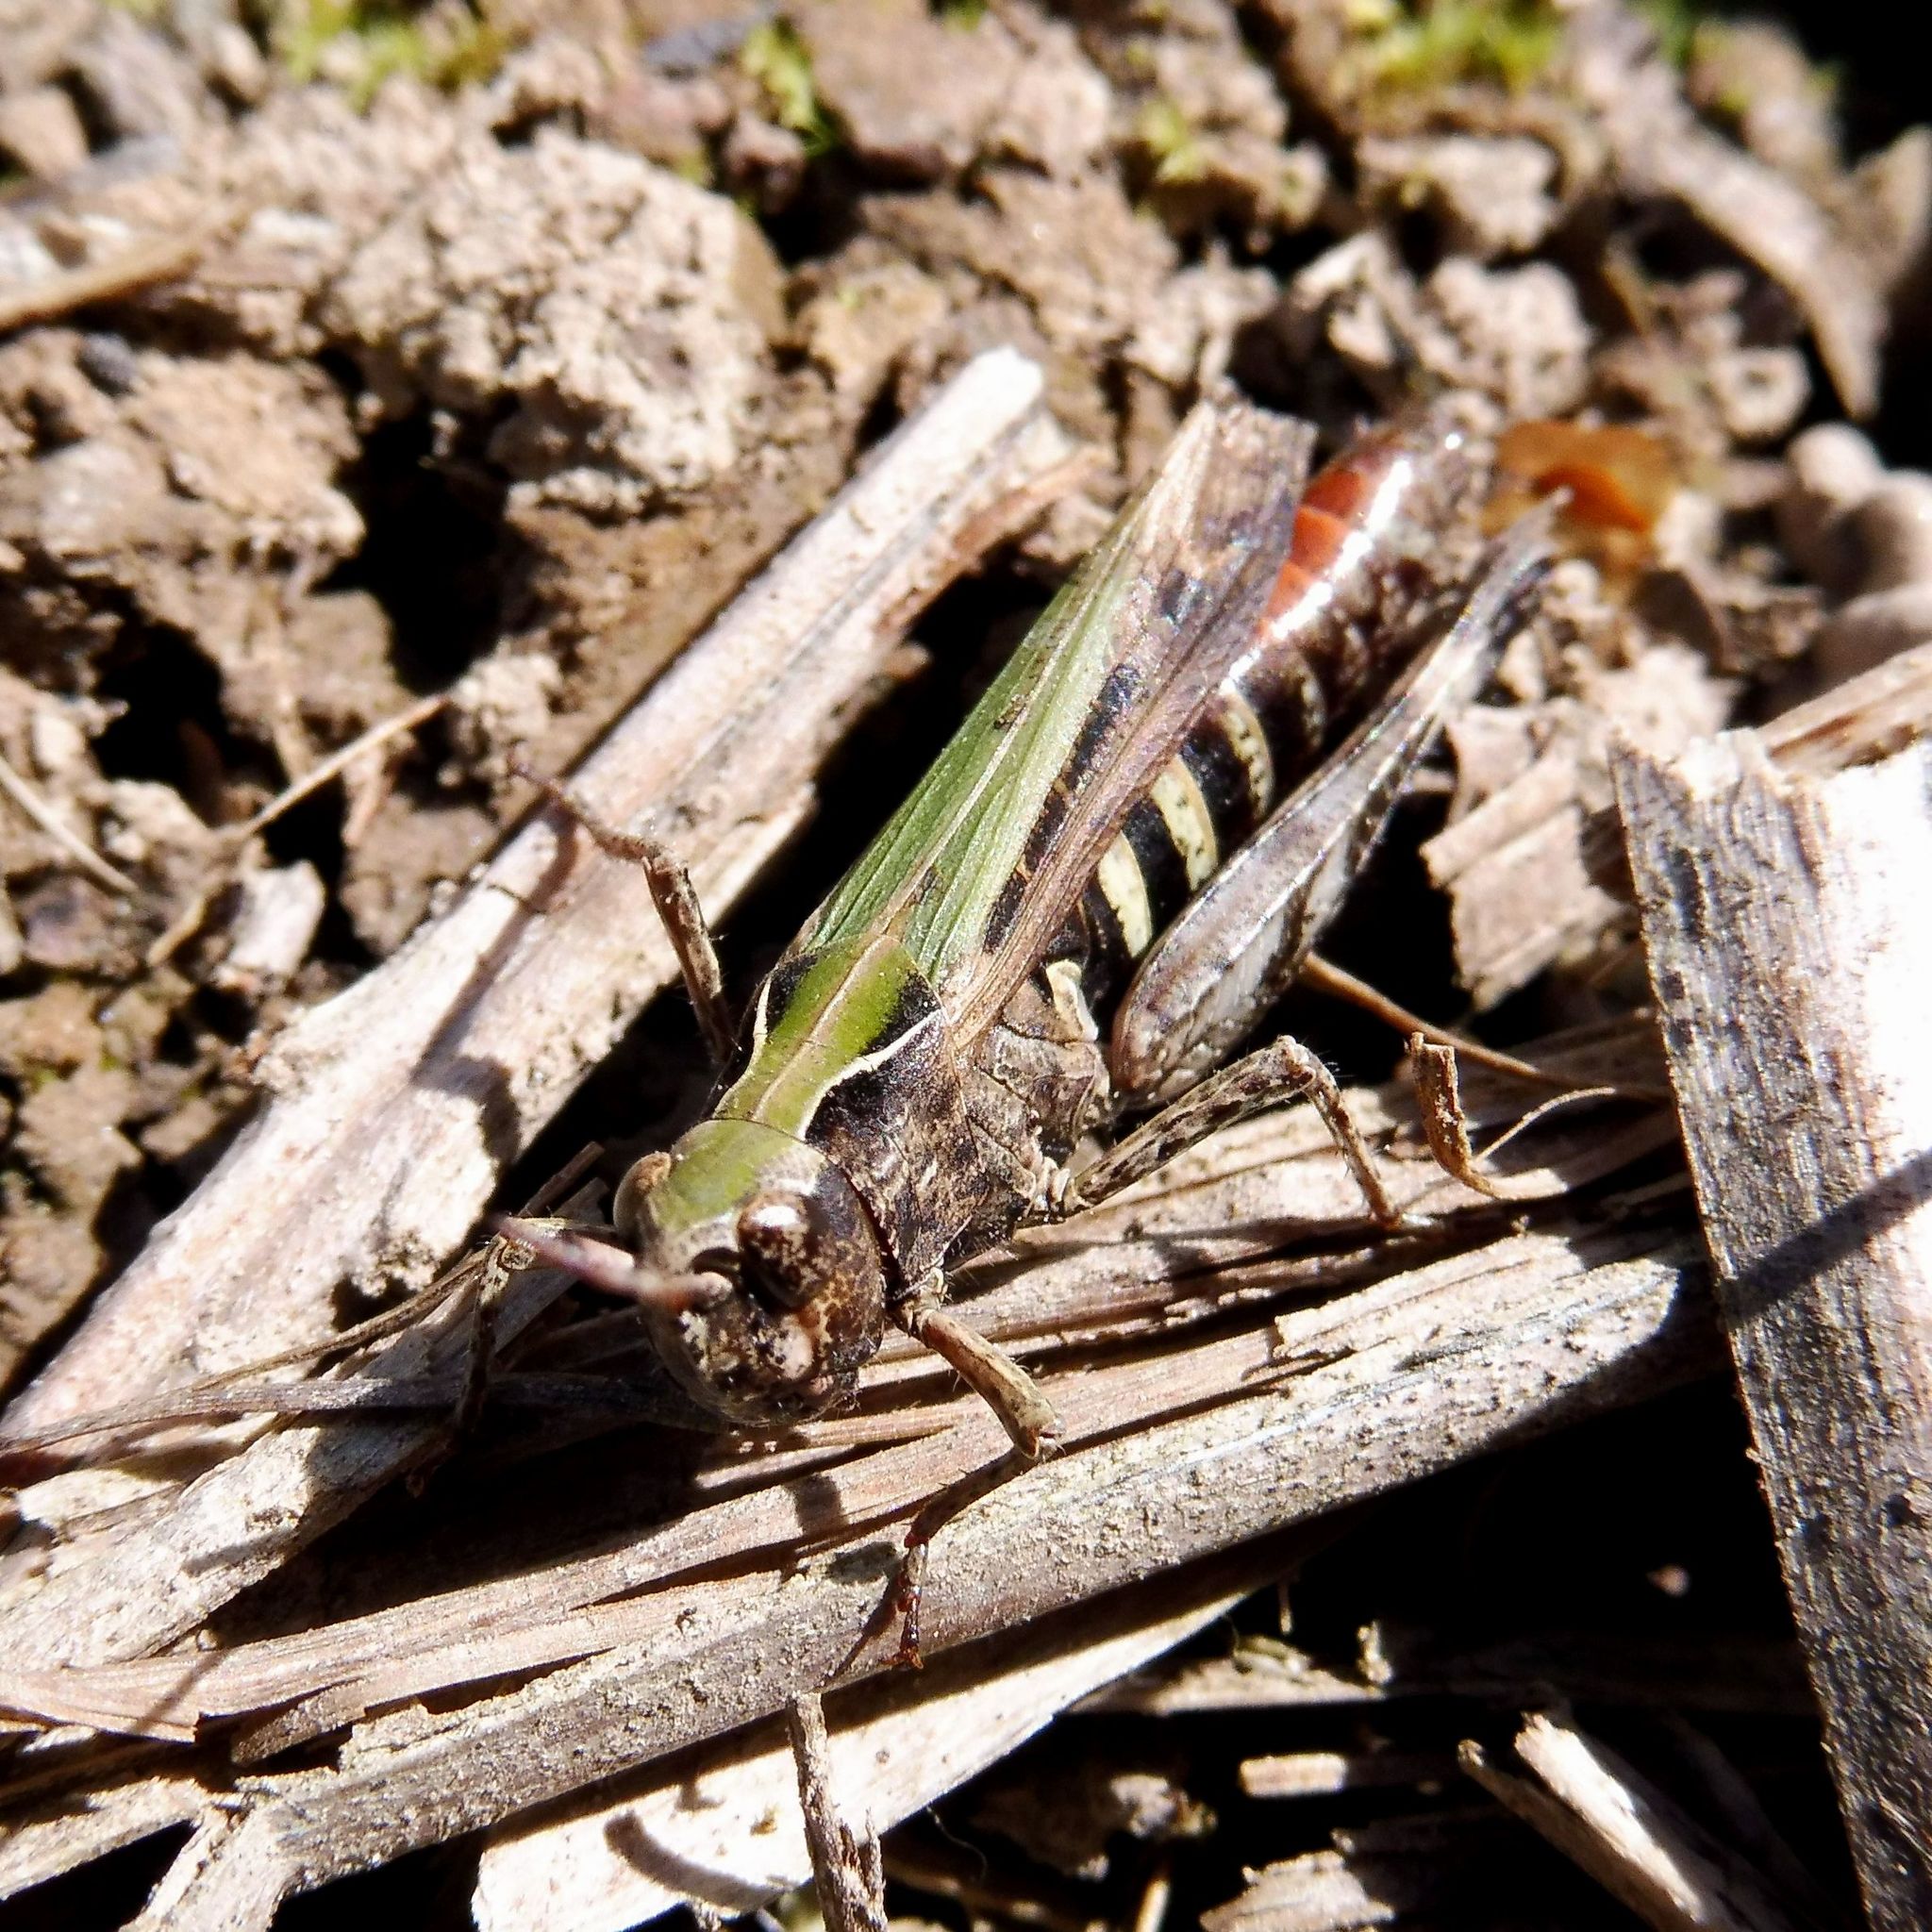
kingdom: Animalia
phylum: Arthropoda
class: Insecta
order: Orthoptera
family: Acrididae
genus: Omocestus
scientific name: Omocestus rufipes
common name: Woodland grasshopper
